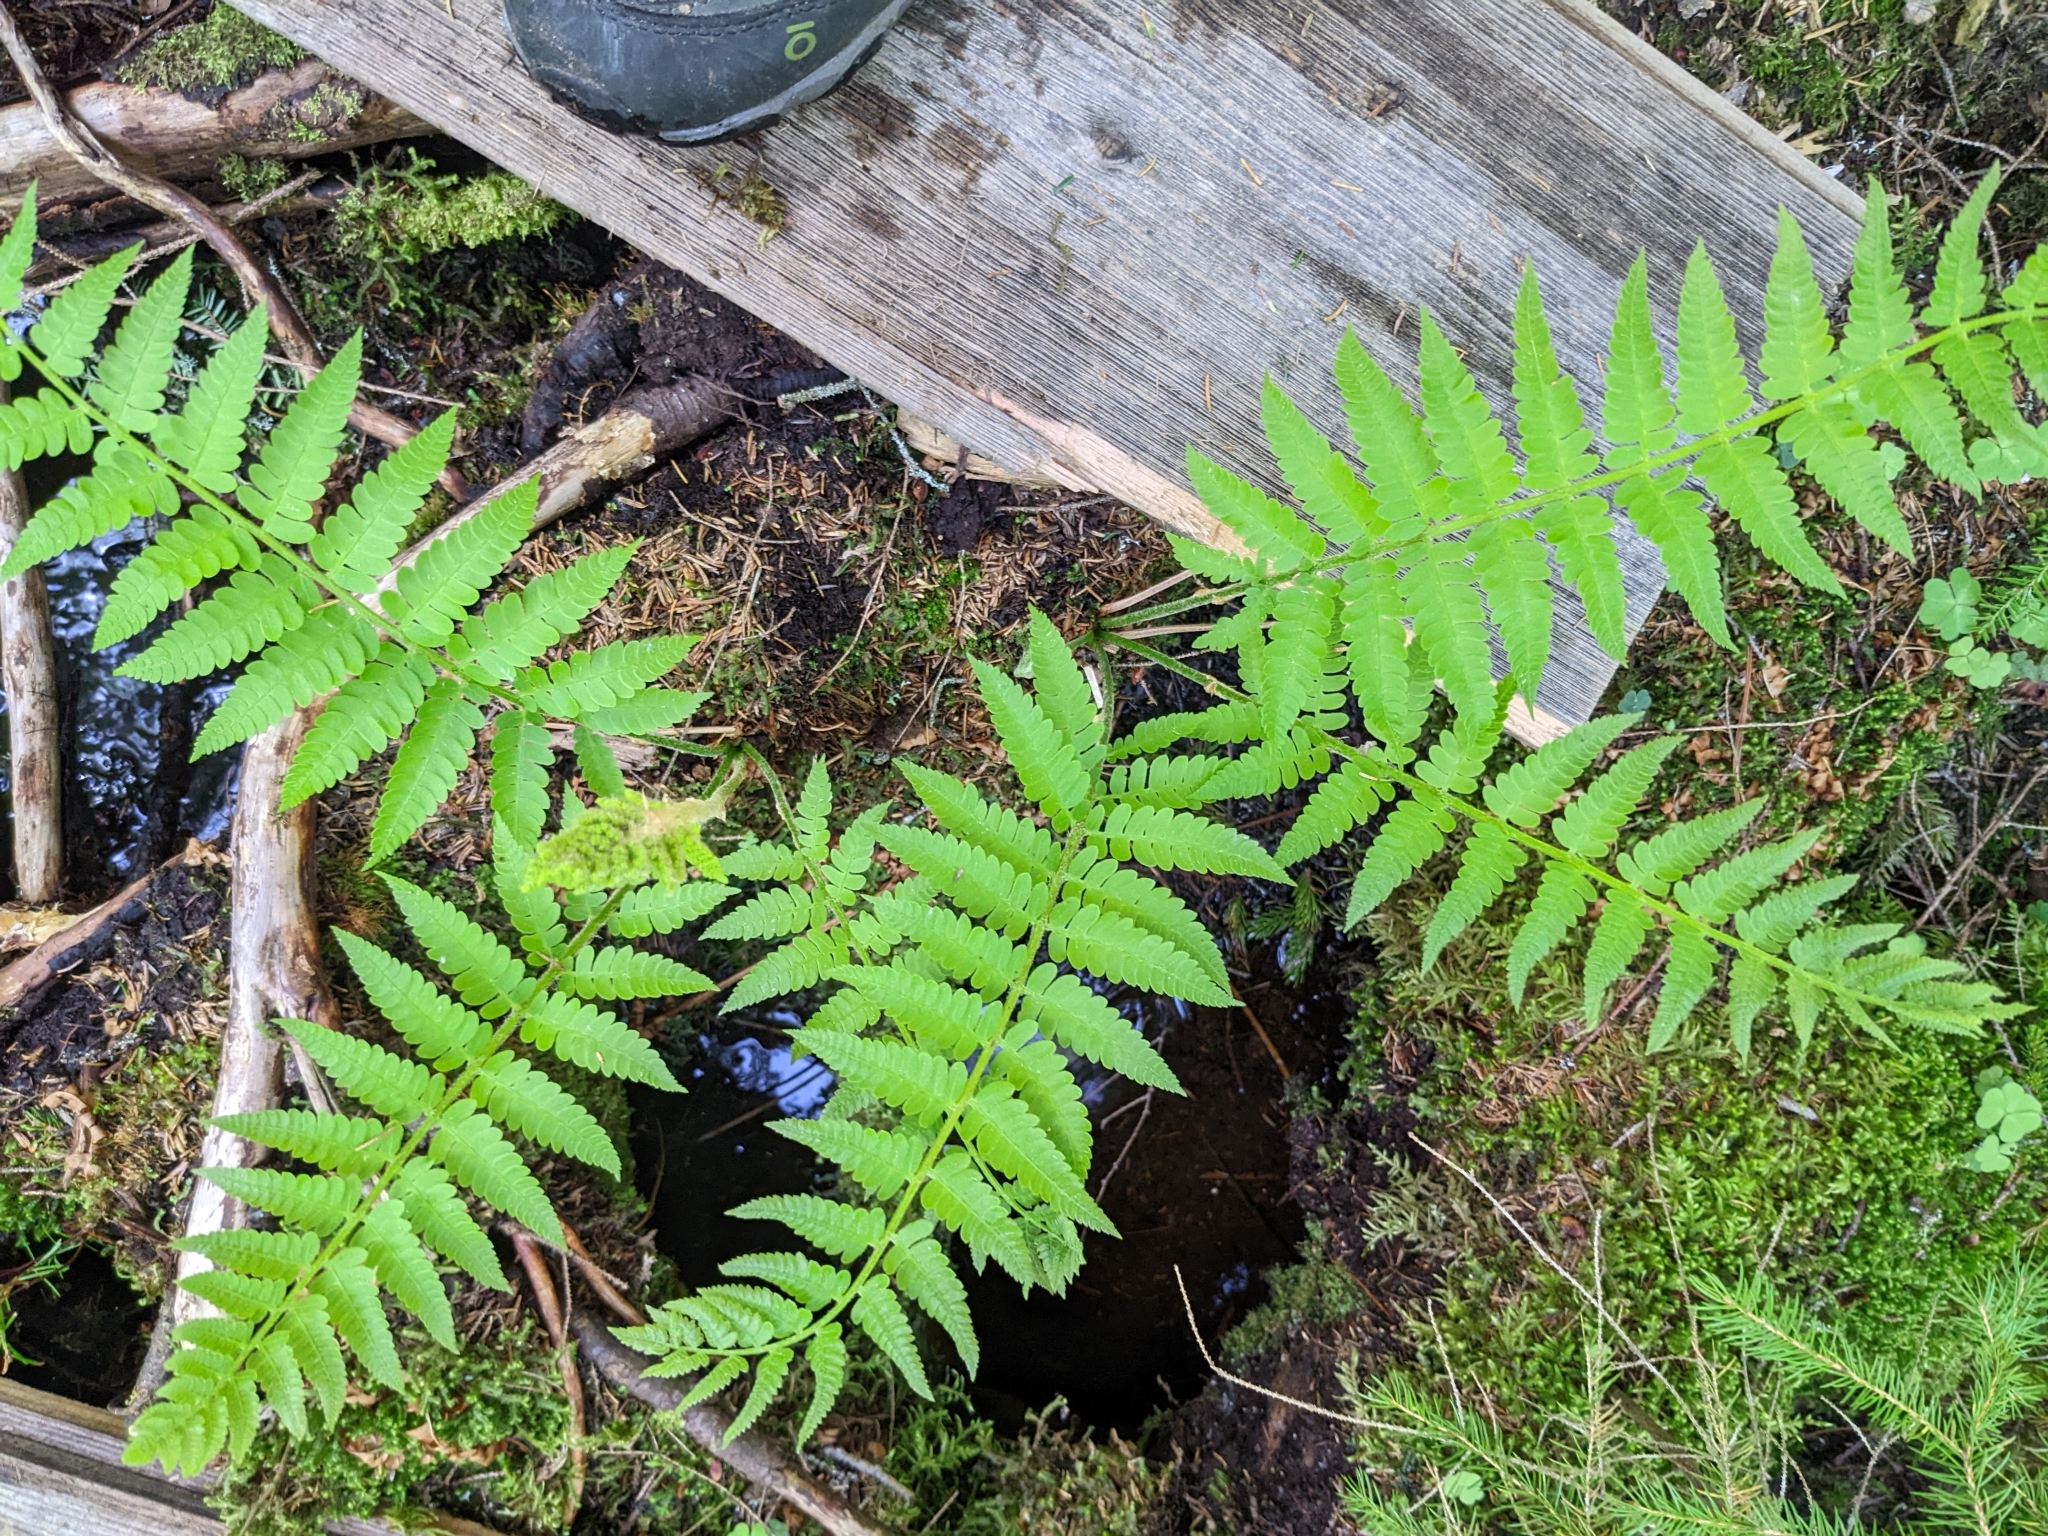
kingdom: Plantae
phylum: Tracheophyta
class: Polypodiopsida
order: Osmundales
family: Osmundaceae
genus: Osmundastrum
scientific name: Osmundastrum cinnamomeum
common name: Cinnamon fern
